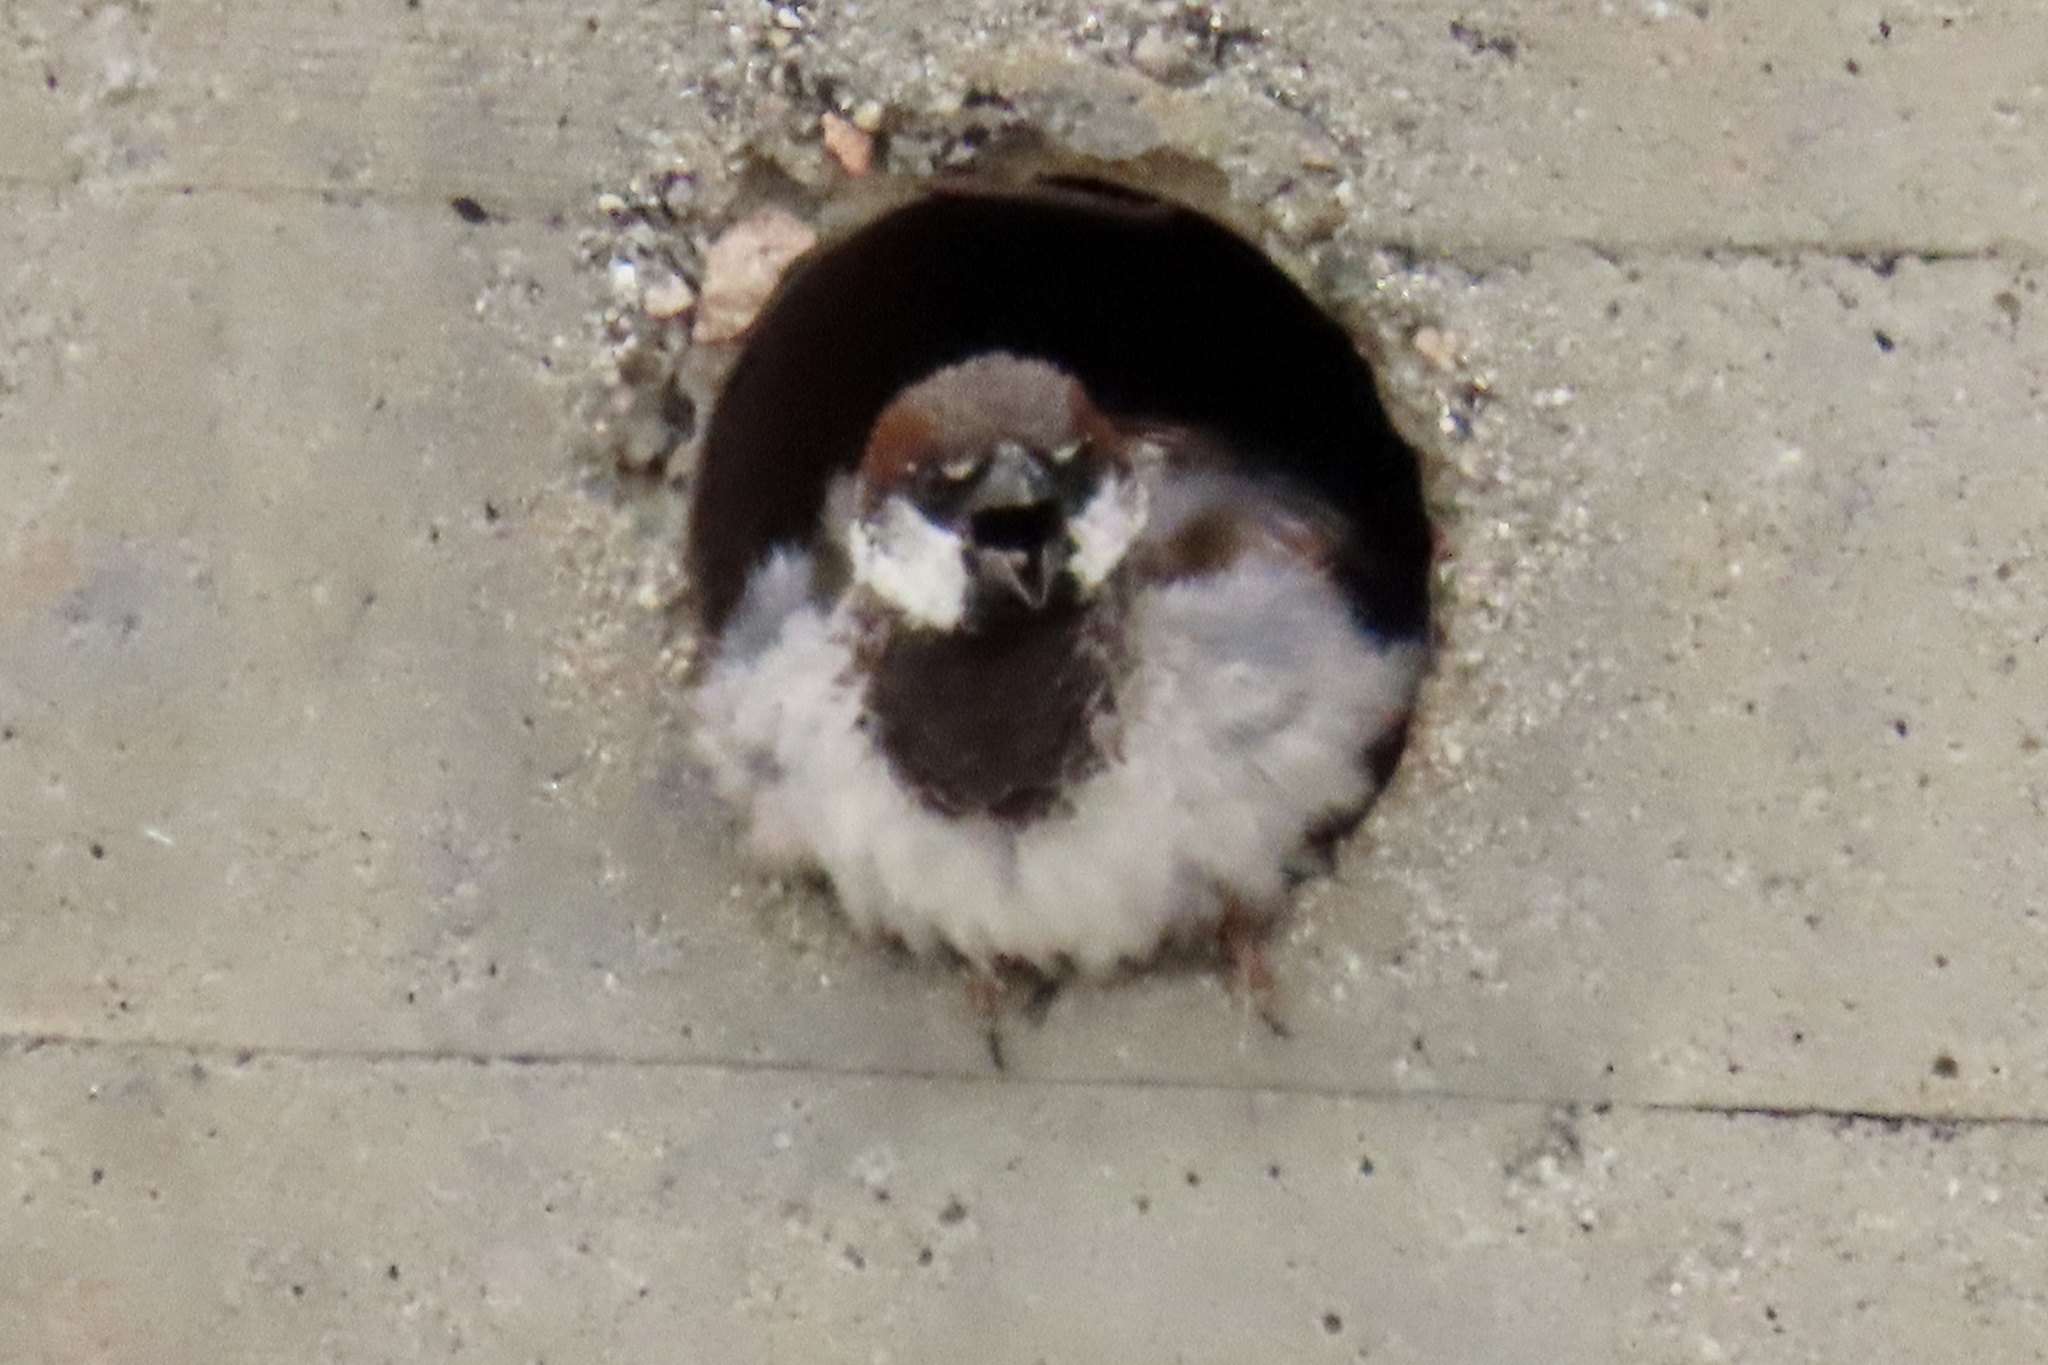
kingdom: Animalia
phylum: Chordata
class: Aves
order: Passeriformes
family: Passeridae
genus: Passer
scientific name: Passer domesticus
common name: House sparrow
